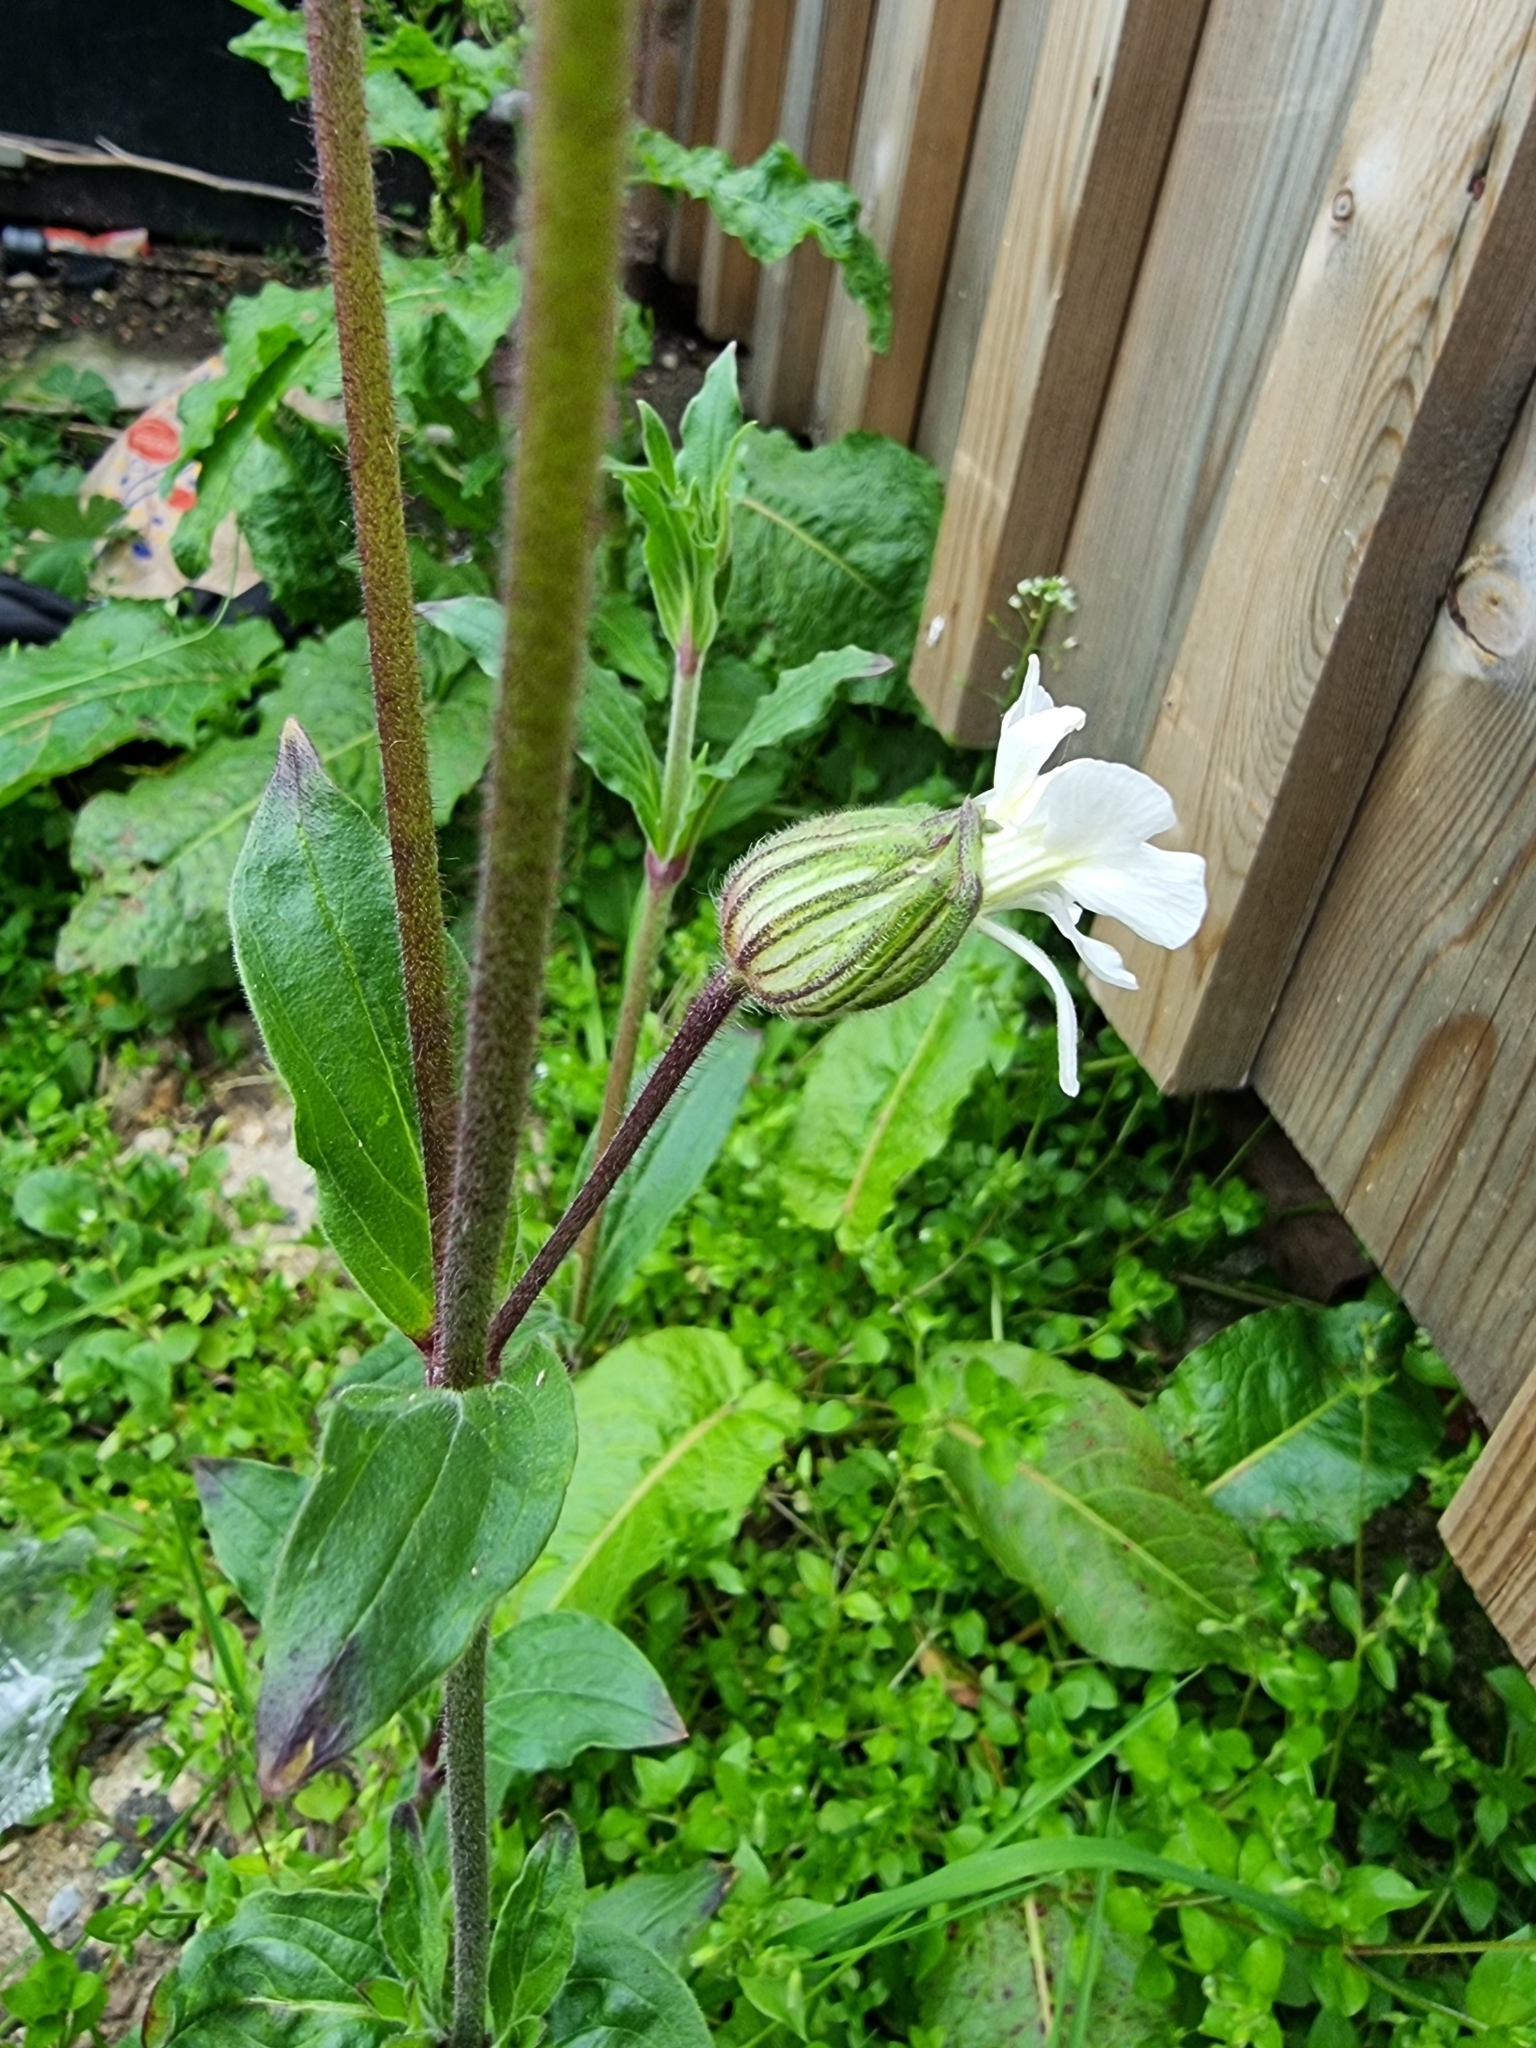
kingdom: Plantae
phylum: Tracheophyta
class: Magnoliopsida
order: Caryophyllales
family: Caryophyllaceae
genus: Silene
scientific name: Silene latifolia
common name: White campion
